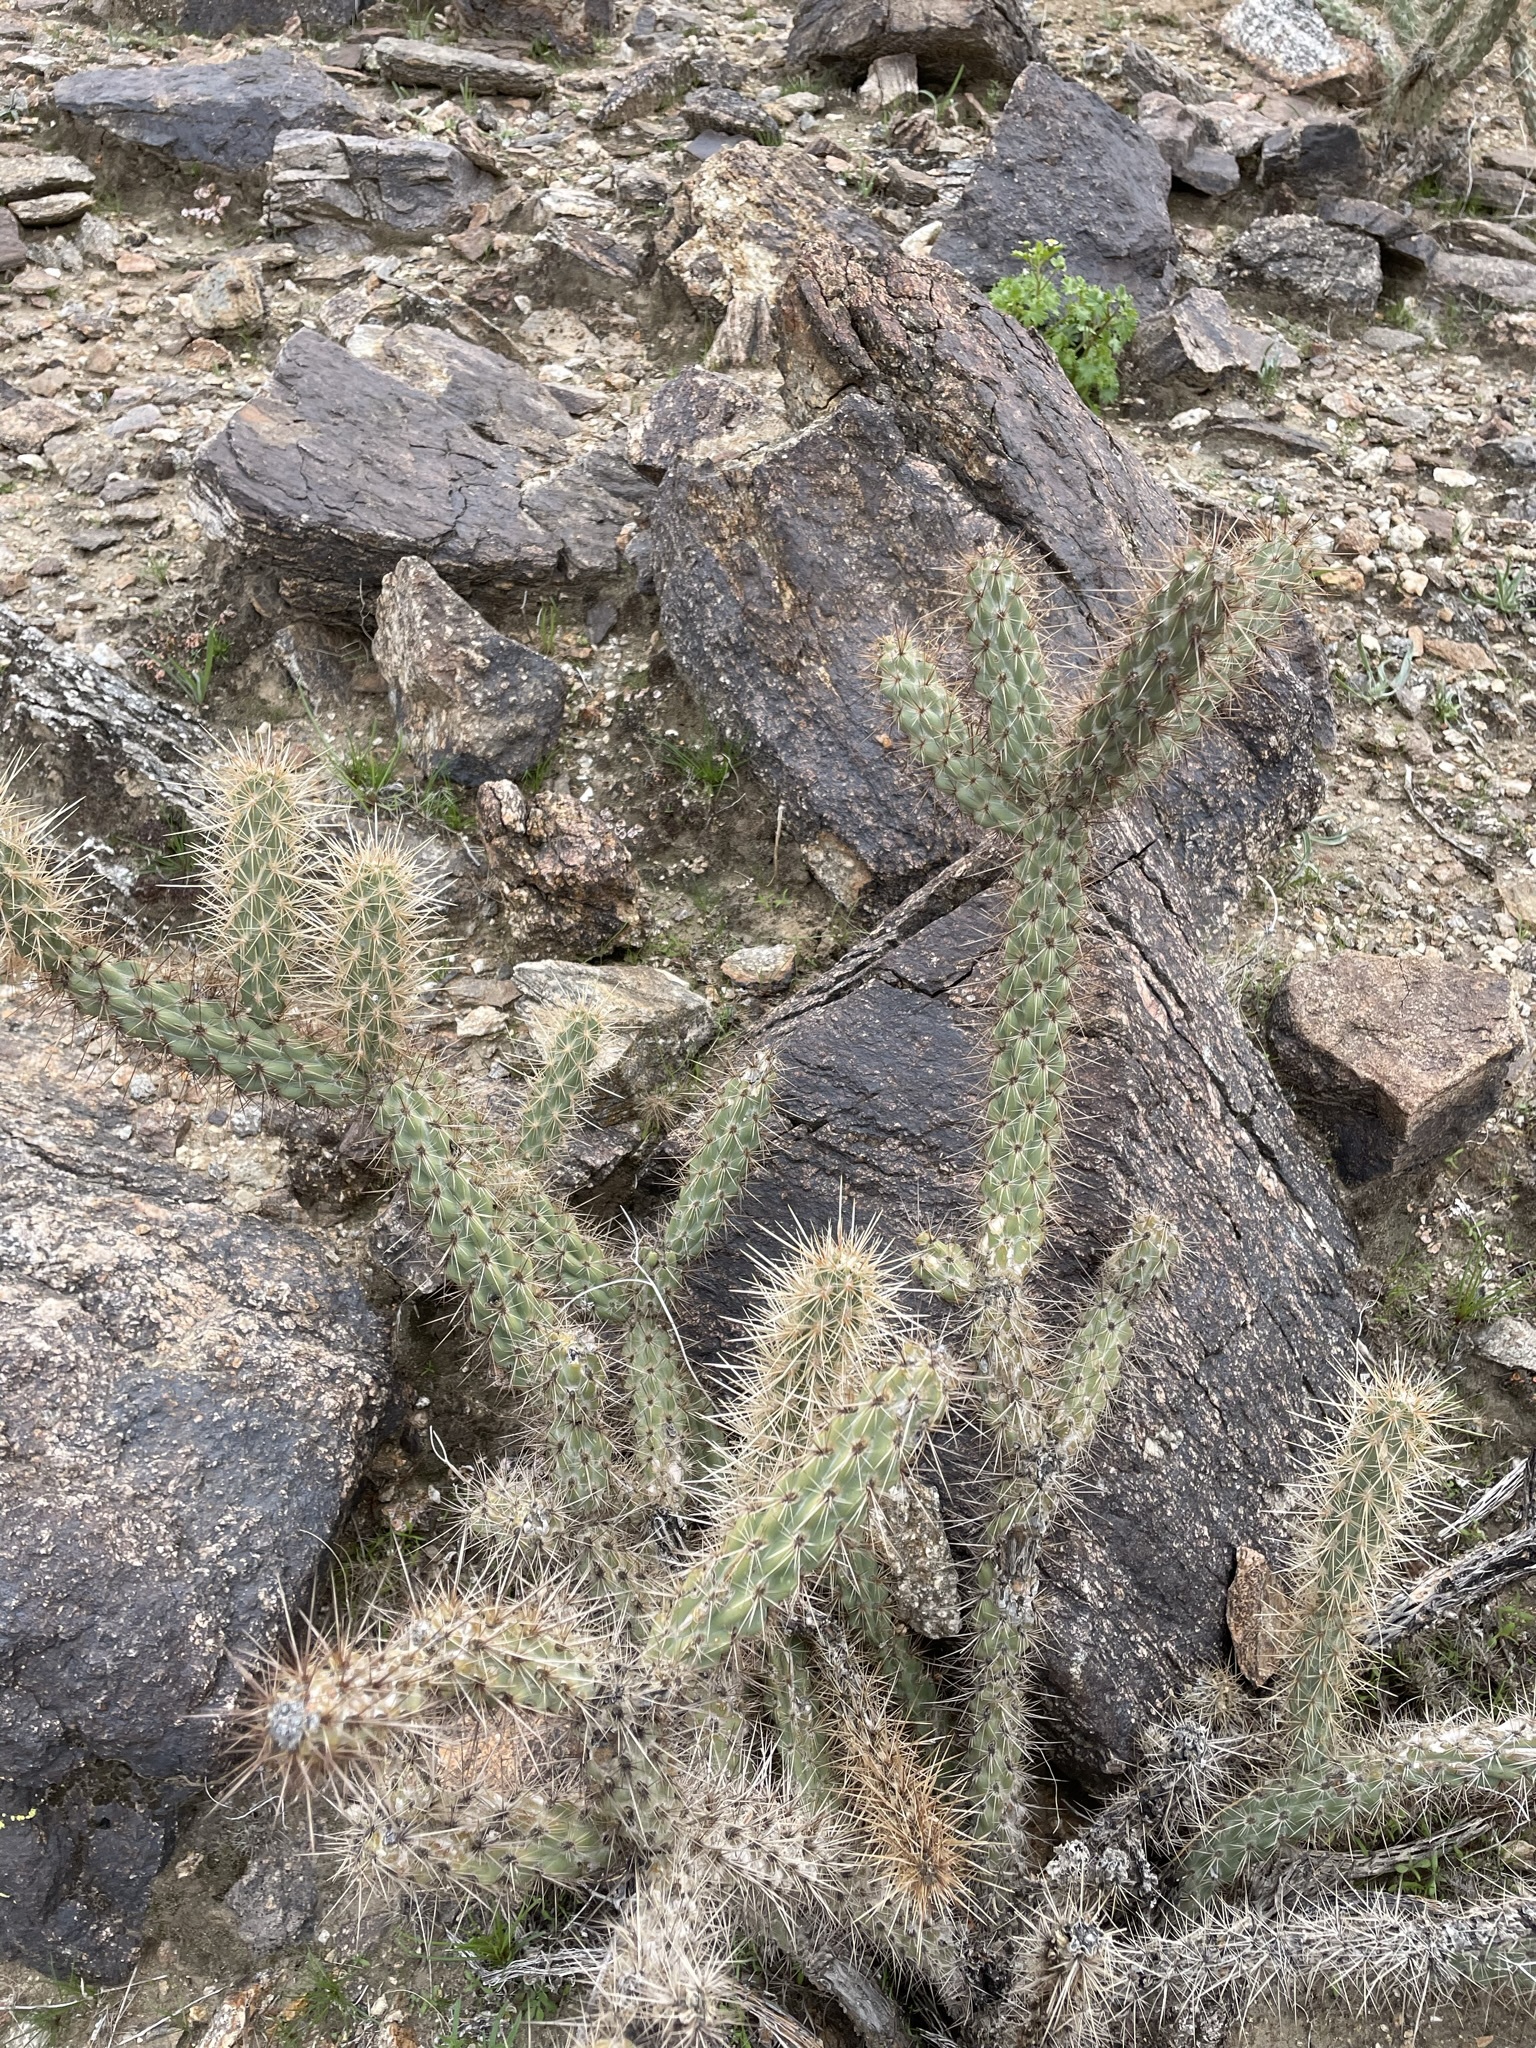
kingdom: Plantae
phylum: Tracheophyta
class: Magnoliopsida
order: Caryophyllales
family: Cactaceae
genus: Cylindropuntia
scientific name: Cylindropuntia ganderi
